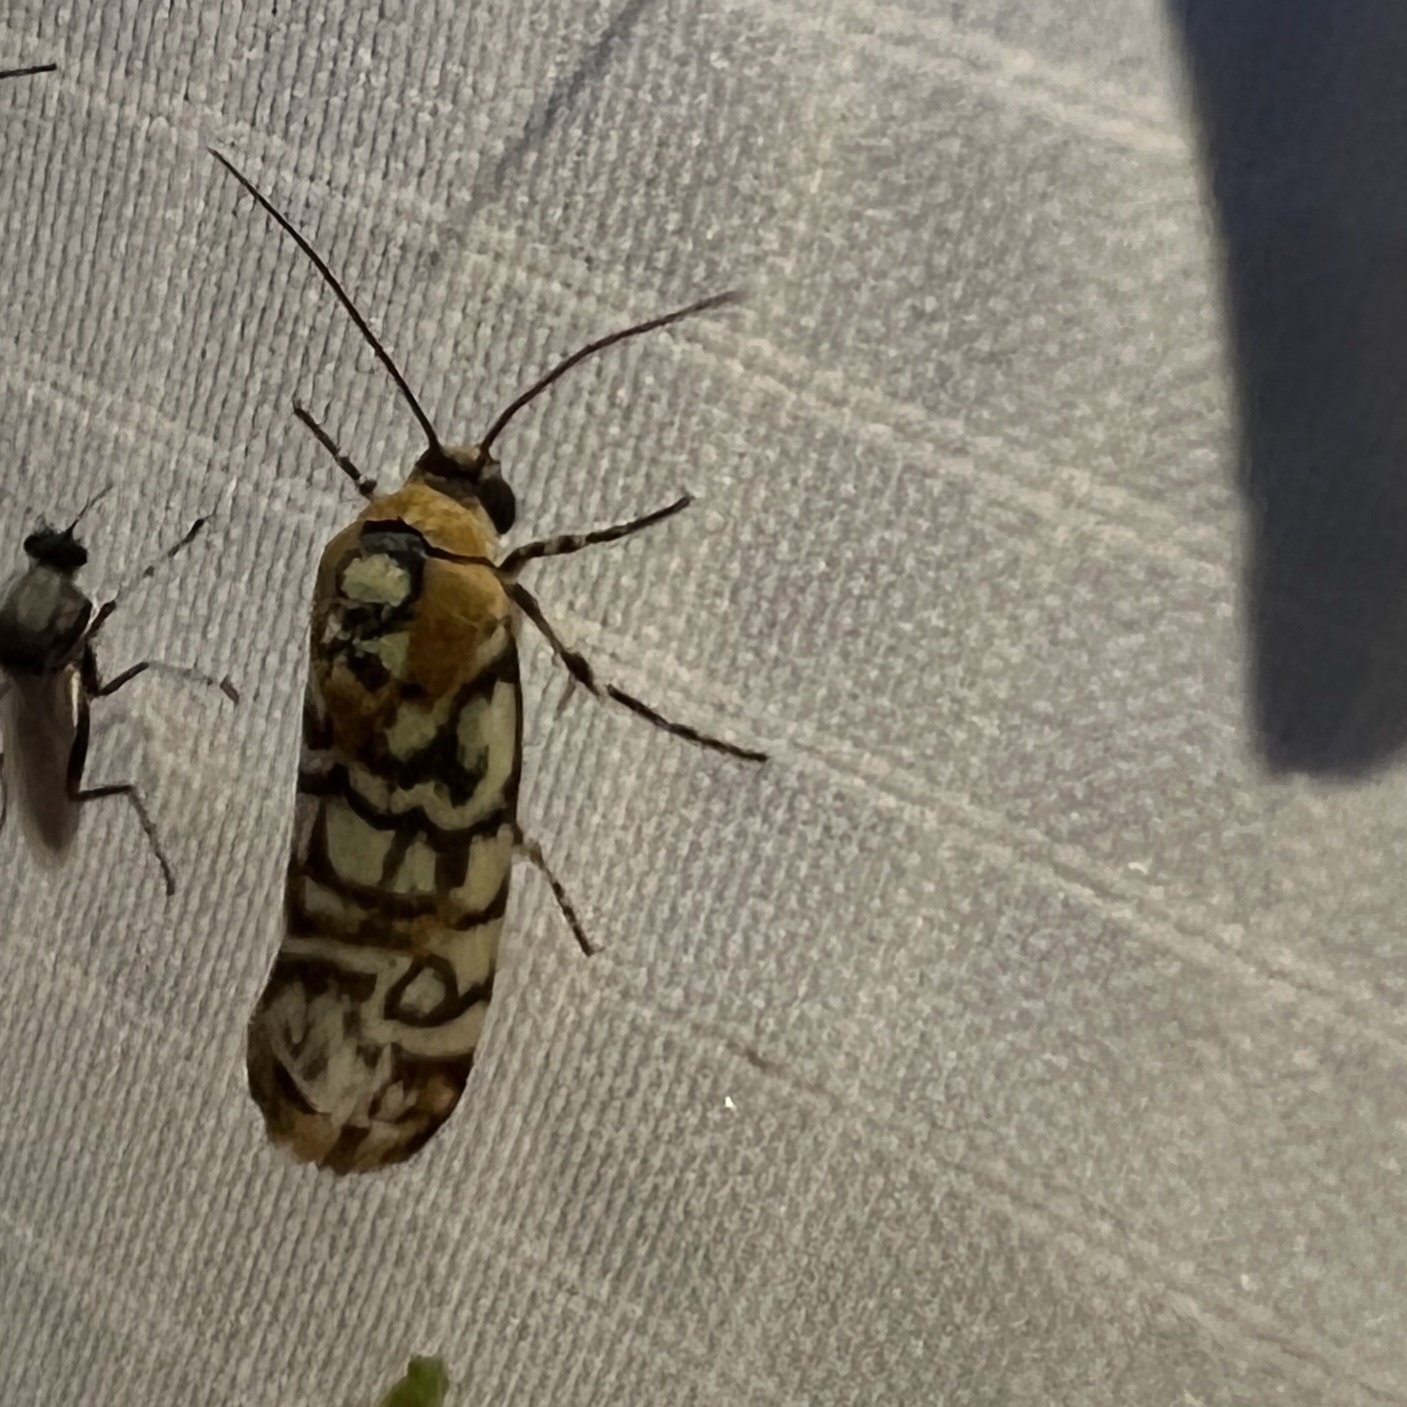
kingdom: Animalia
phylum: Arthropoda
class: Insecta
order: Lepidoptera
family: Noctuidae
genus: Spragueia
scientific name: Spragueia guttata
